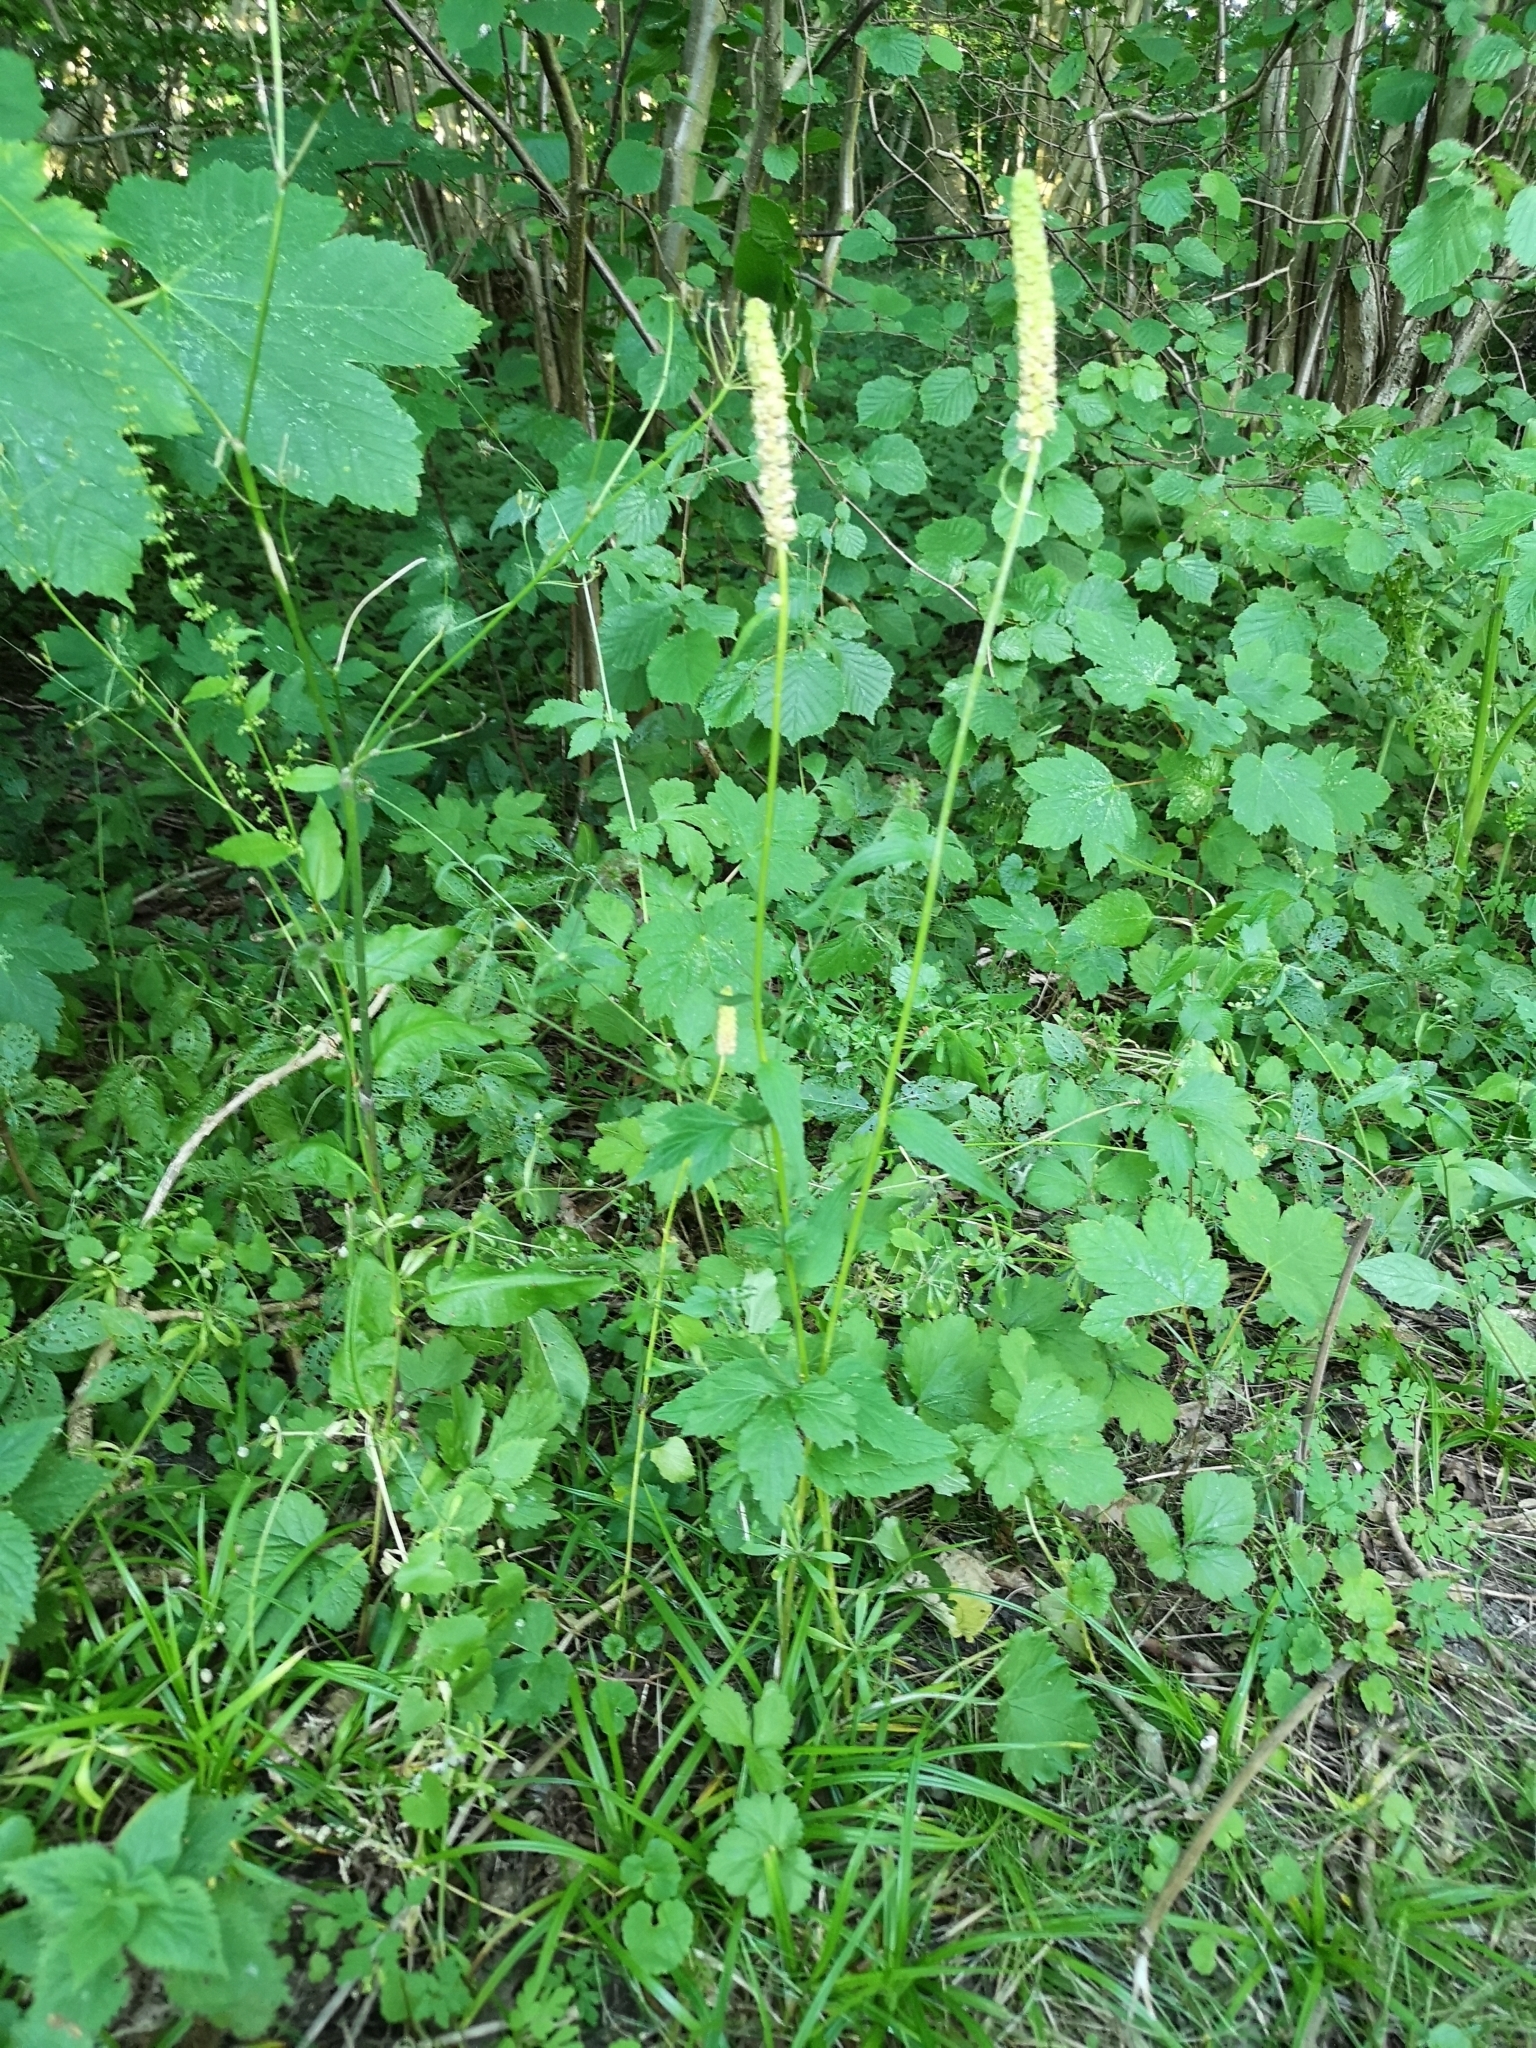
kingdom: Plantae
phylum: Tracheophyta
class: Magnoliopsida
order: Asterales
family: Campanulaceae
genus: Phyteuma
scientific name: Phyteuma spicatum
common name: Spiked rampion
